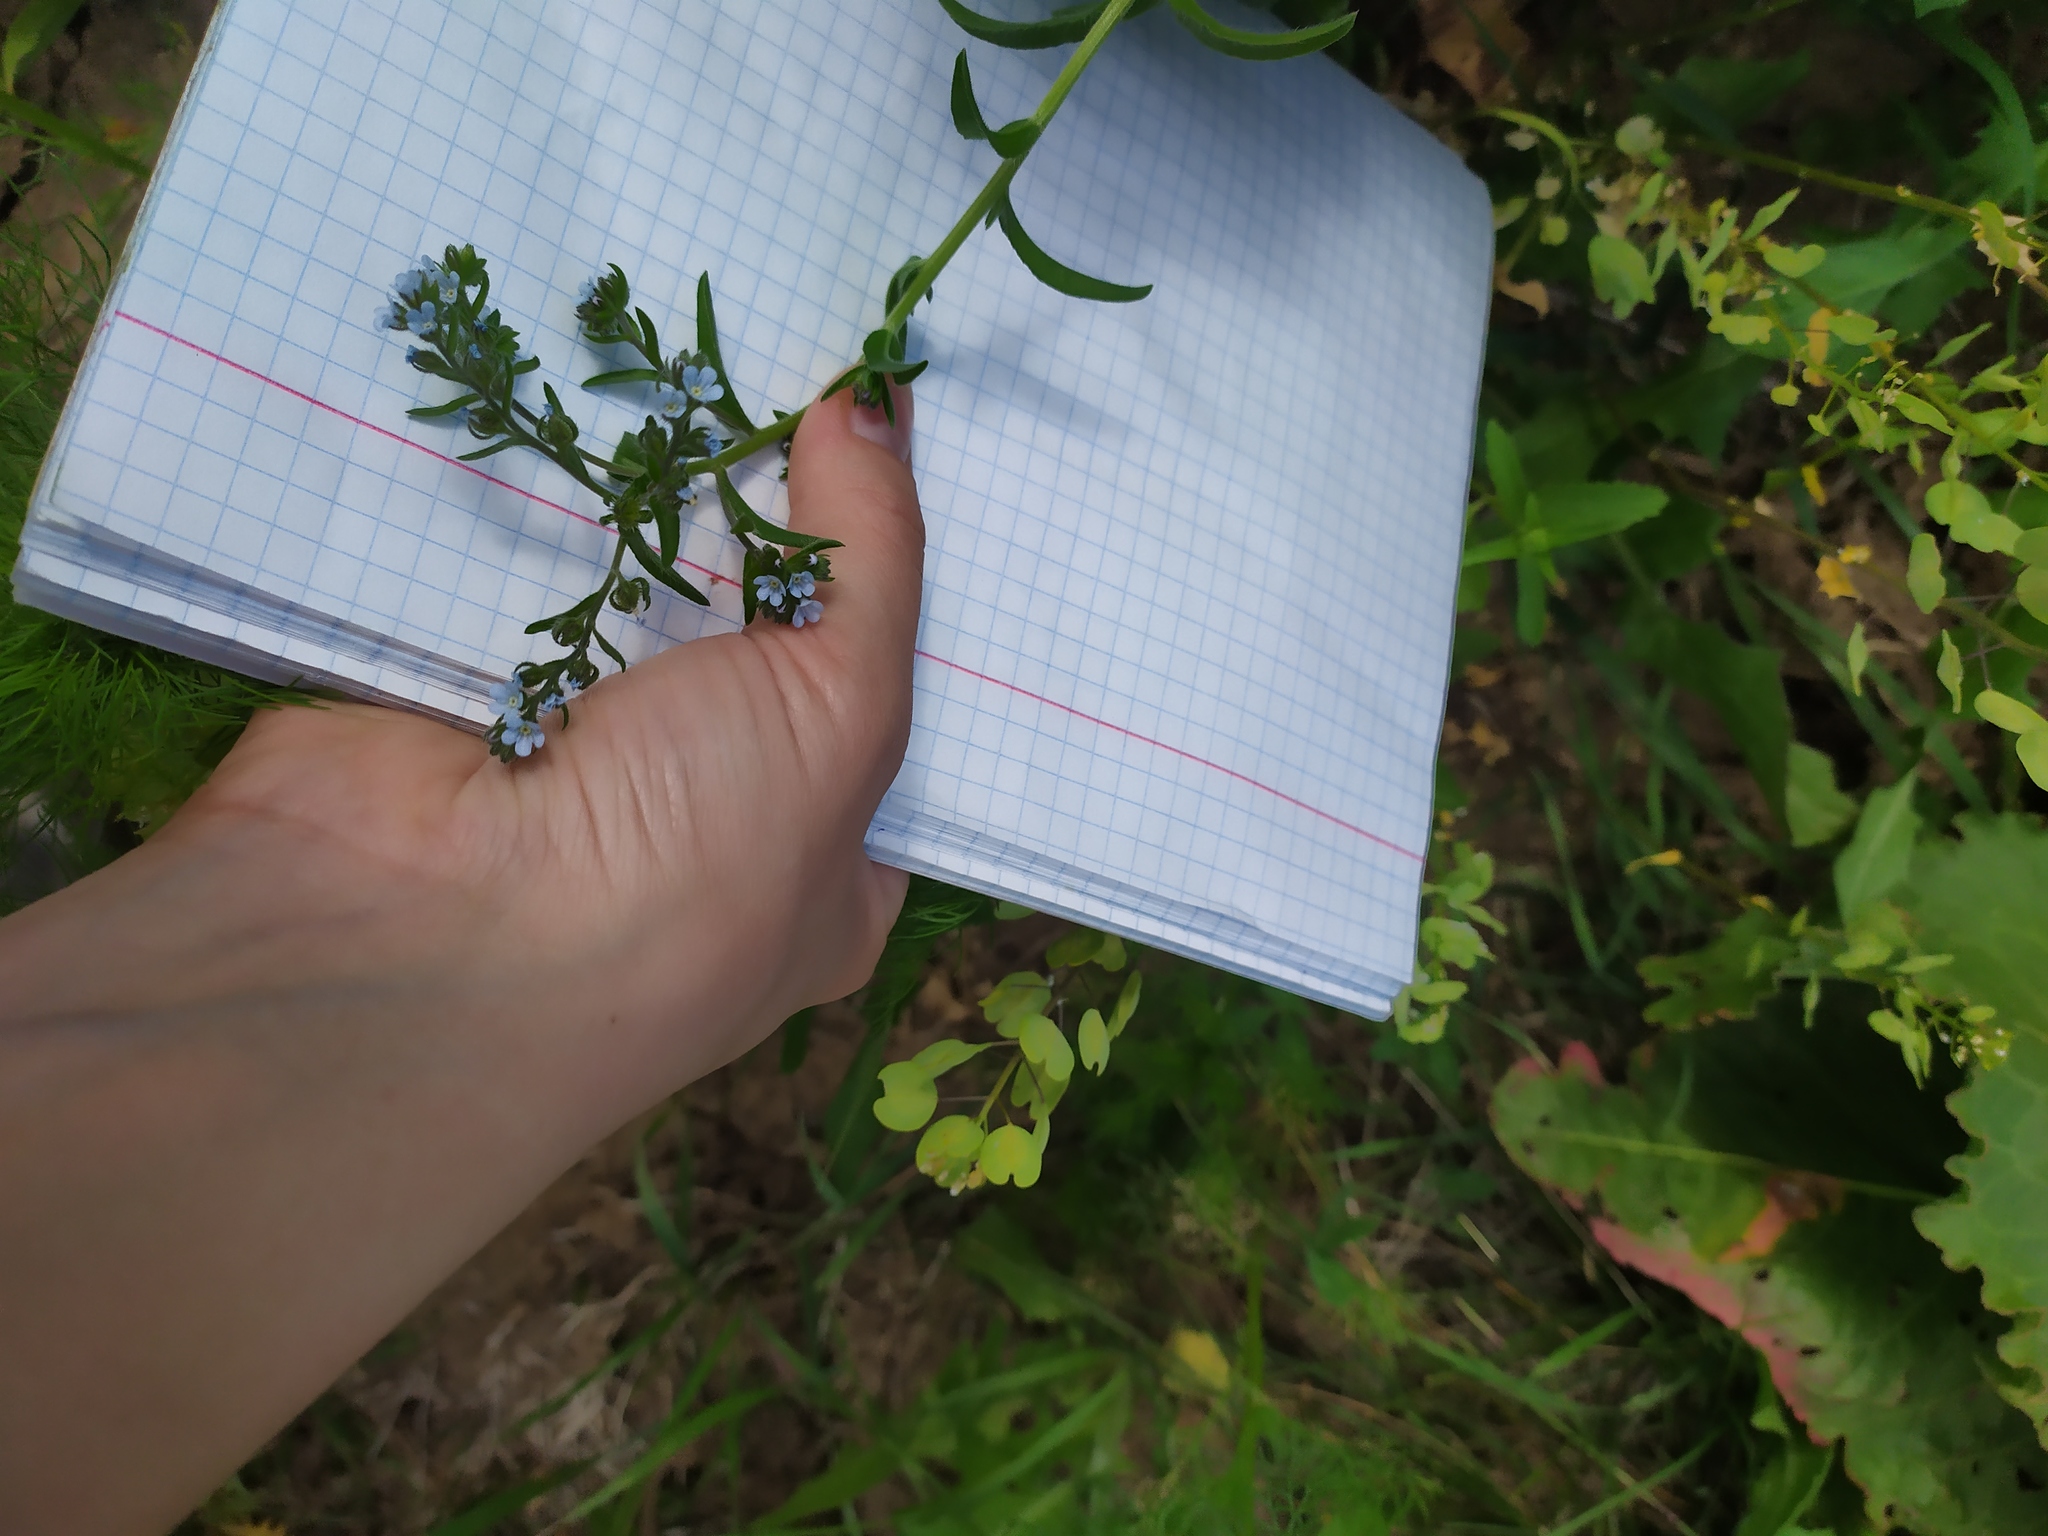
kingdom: Plantae
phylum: Tracheophyta
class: Magnoliopsida
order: Boraginales
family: Boraginaceae
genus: Lappula
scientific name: Lappula squarrosa
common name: European stickseed
